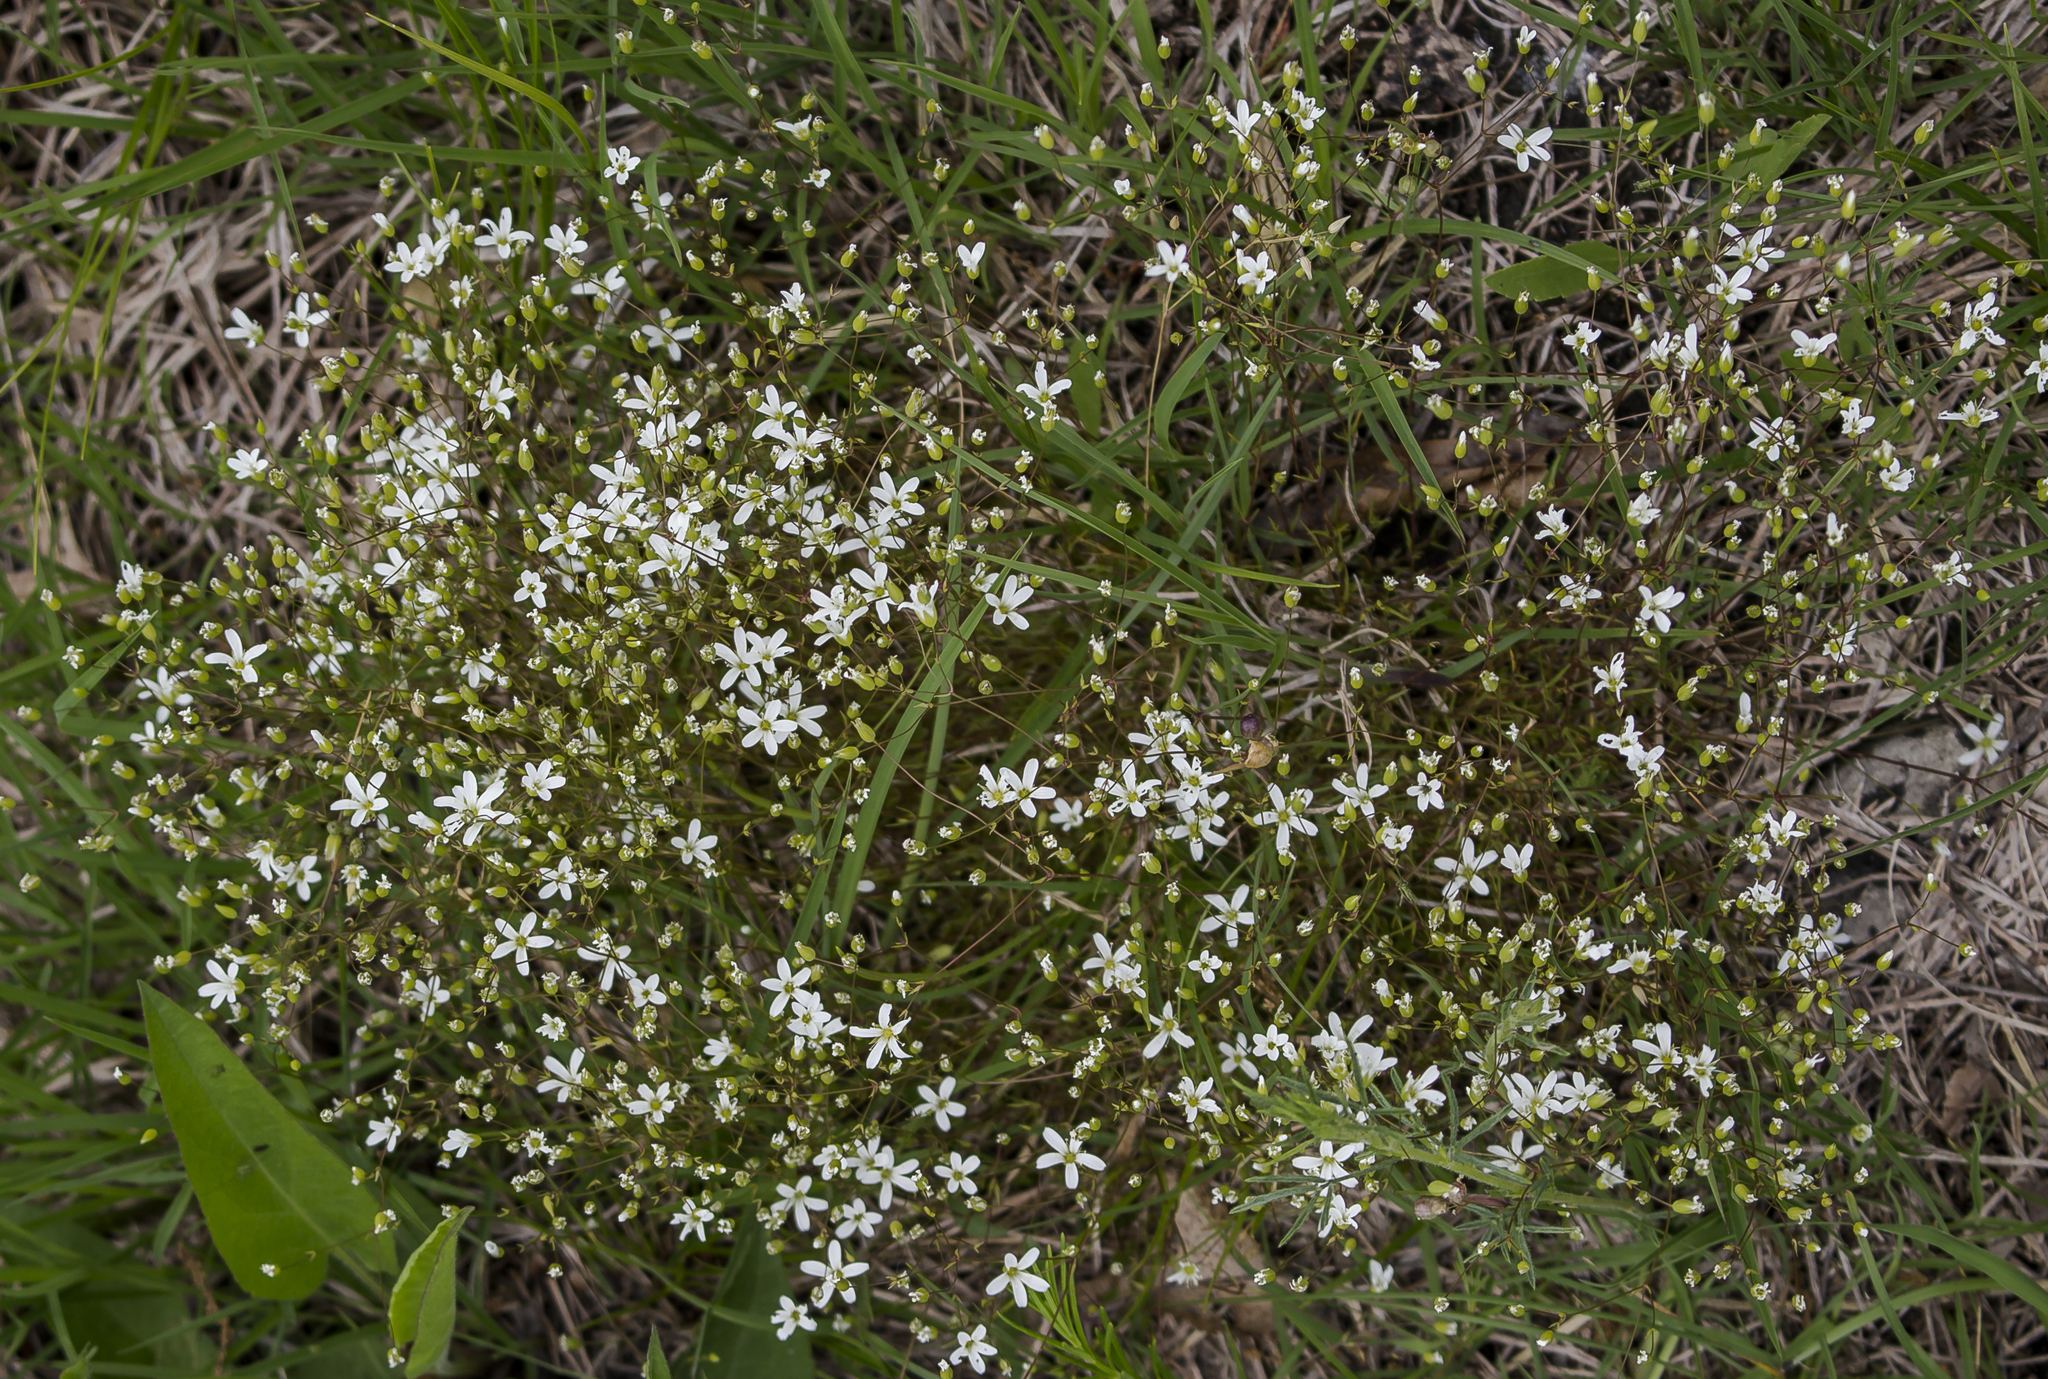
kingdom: Plantae
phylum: Tracheophyta
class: Magnoliopsida
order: Caryophyllales
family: Caryophyllaceae
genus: Sabulina
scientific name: Sabulina michauxii
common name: Michaux's stitchwort
